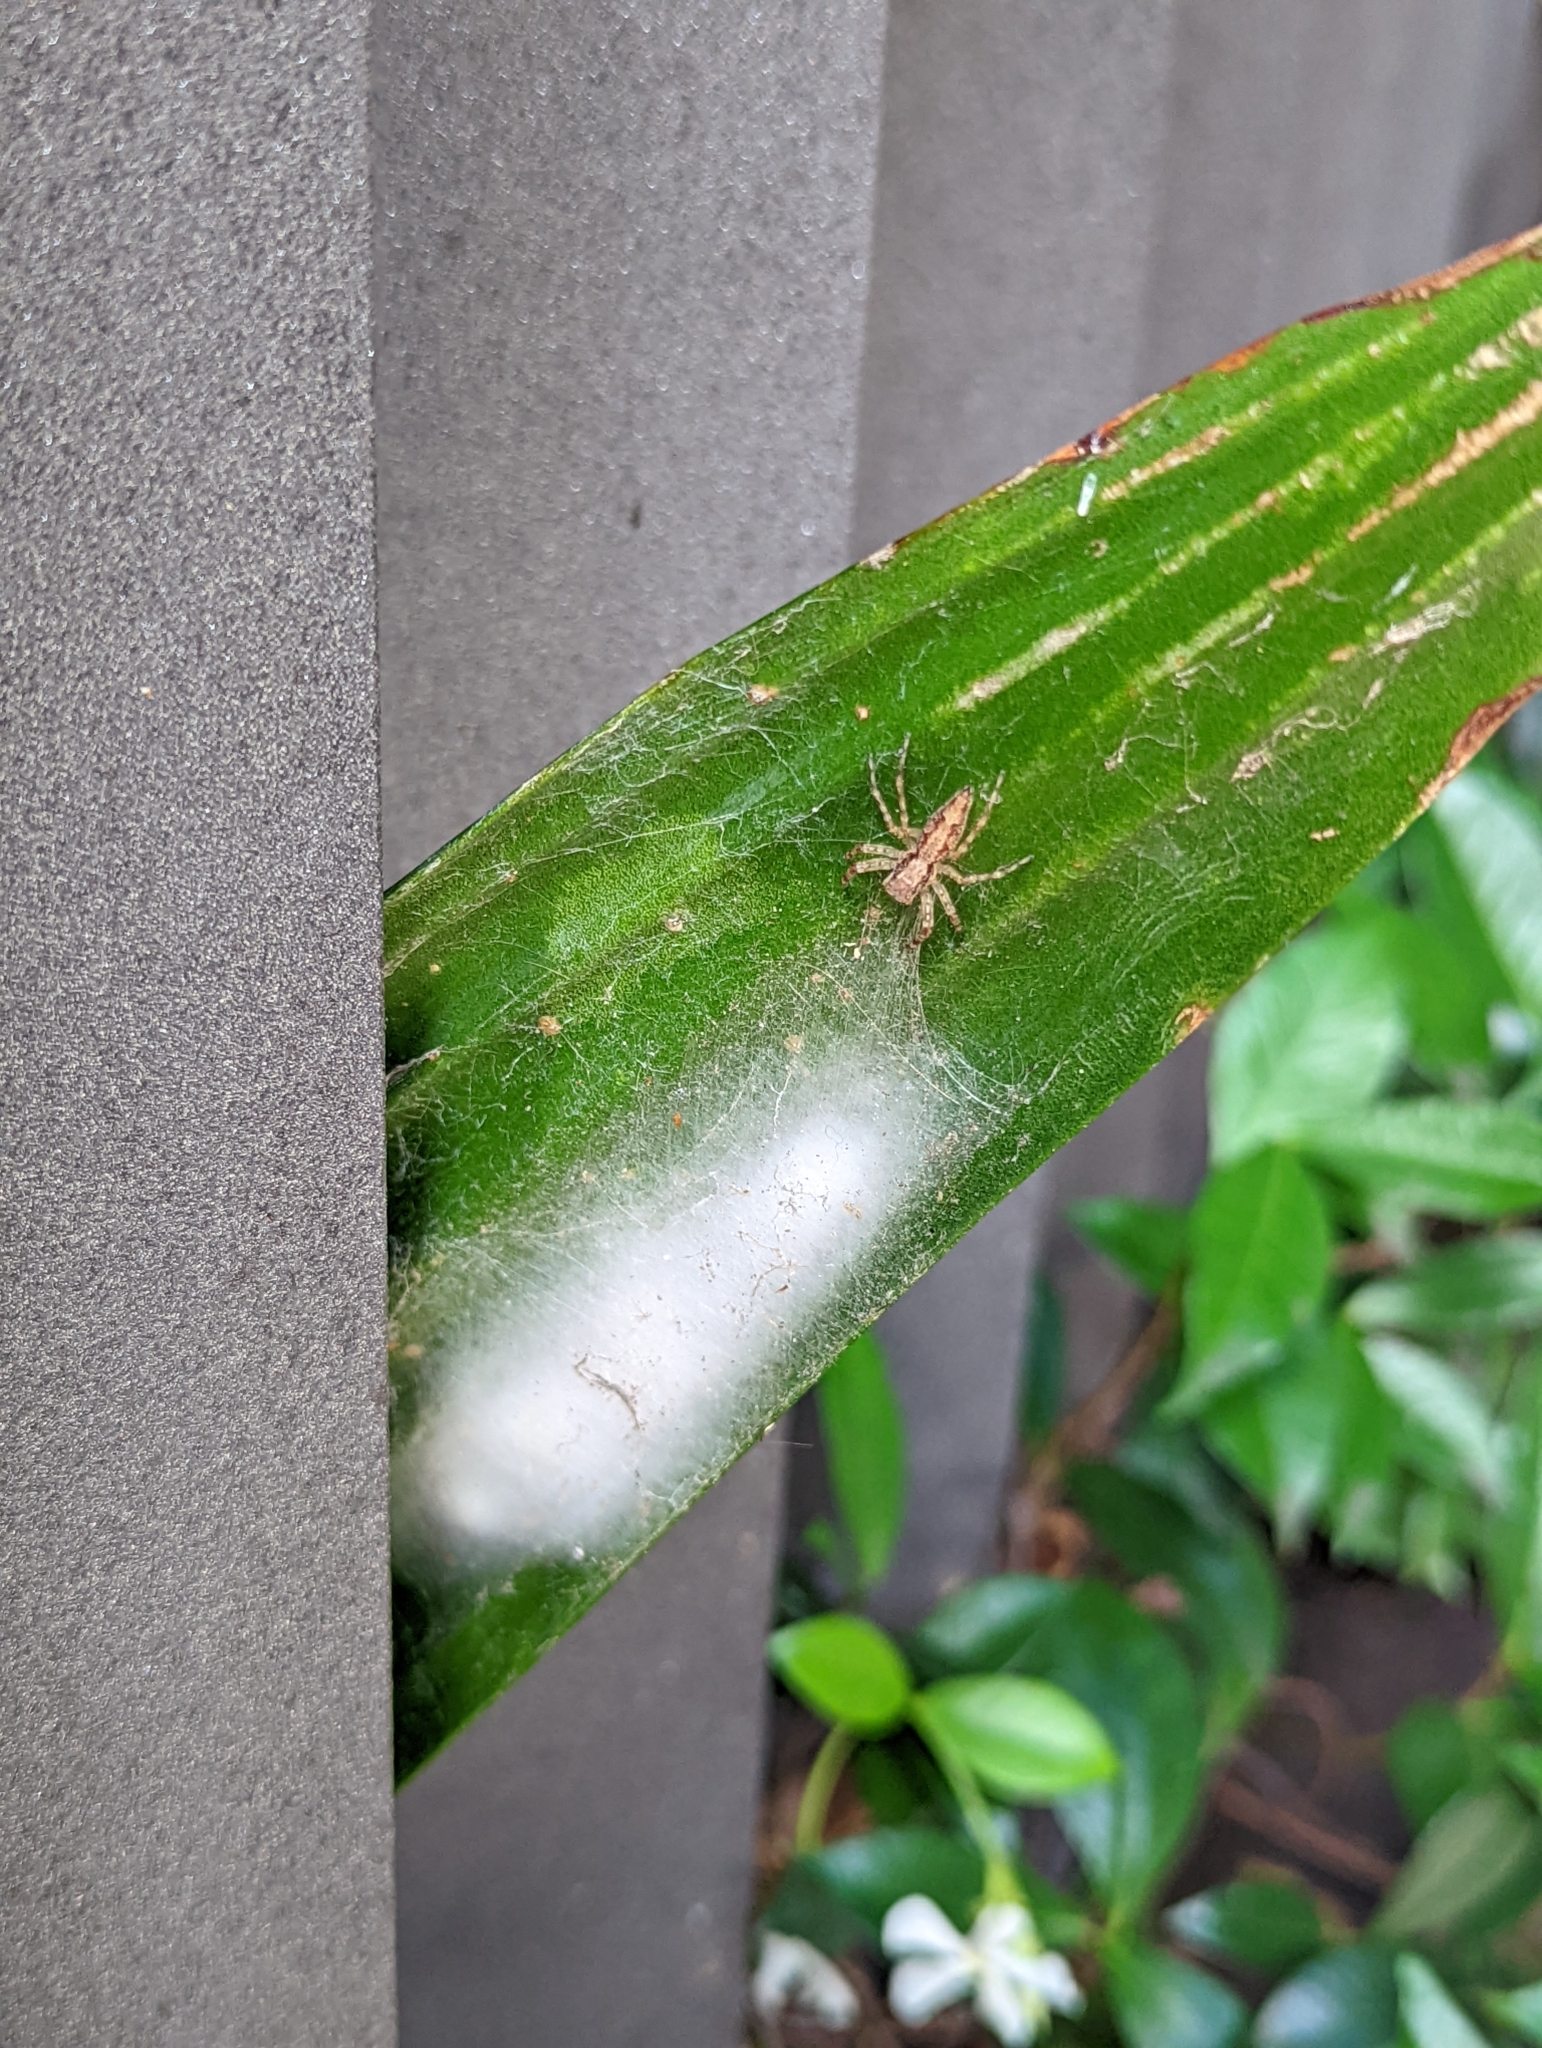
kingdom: Animalia
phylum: Arthropoda
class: Arachnida
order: Araneae
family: Salticidae
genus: Helpis
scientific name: Helpis minitabunda
